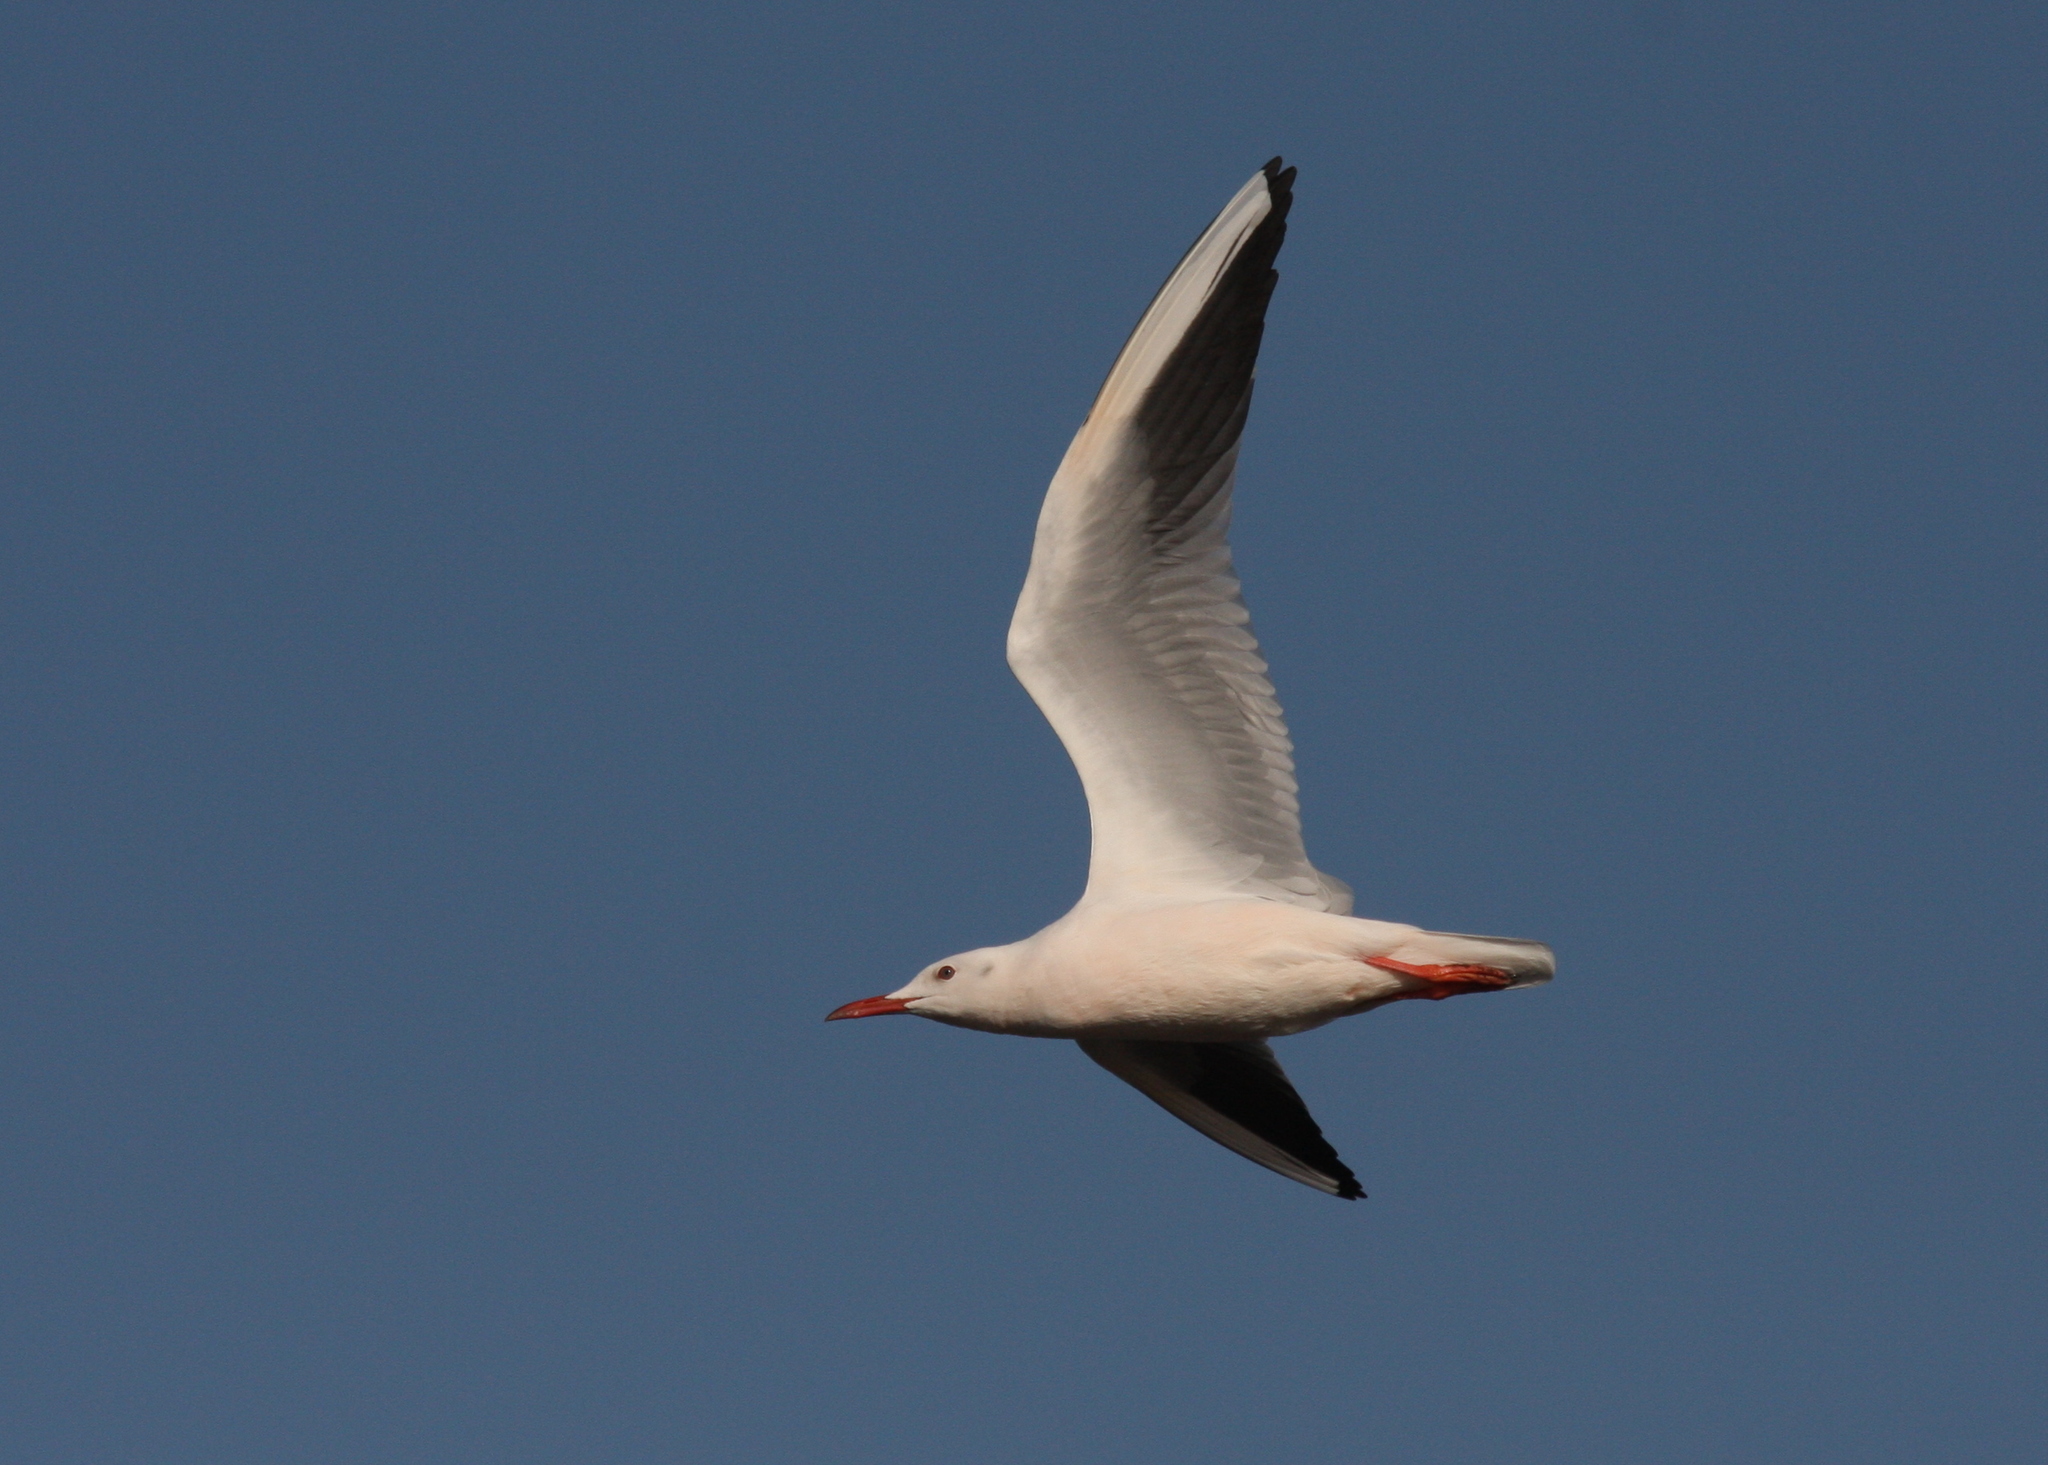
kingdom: Animalia
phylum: Chordata
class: Aves
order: Charadriiformes
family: Laridae
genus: Chroicocephalus
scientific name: Chroicocephalus genei
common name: Slender-billed gull
